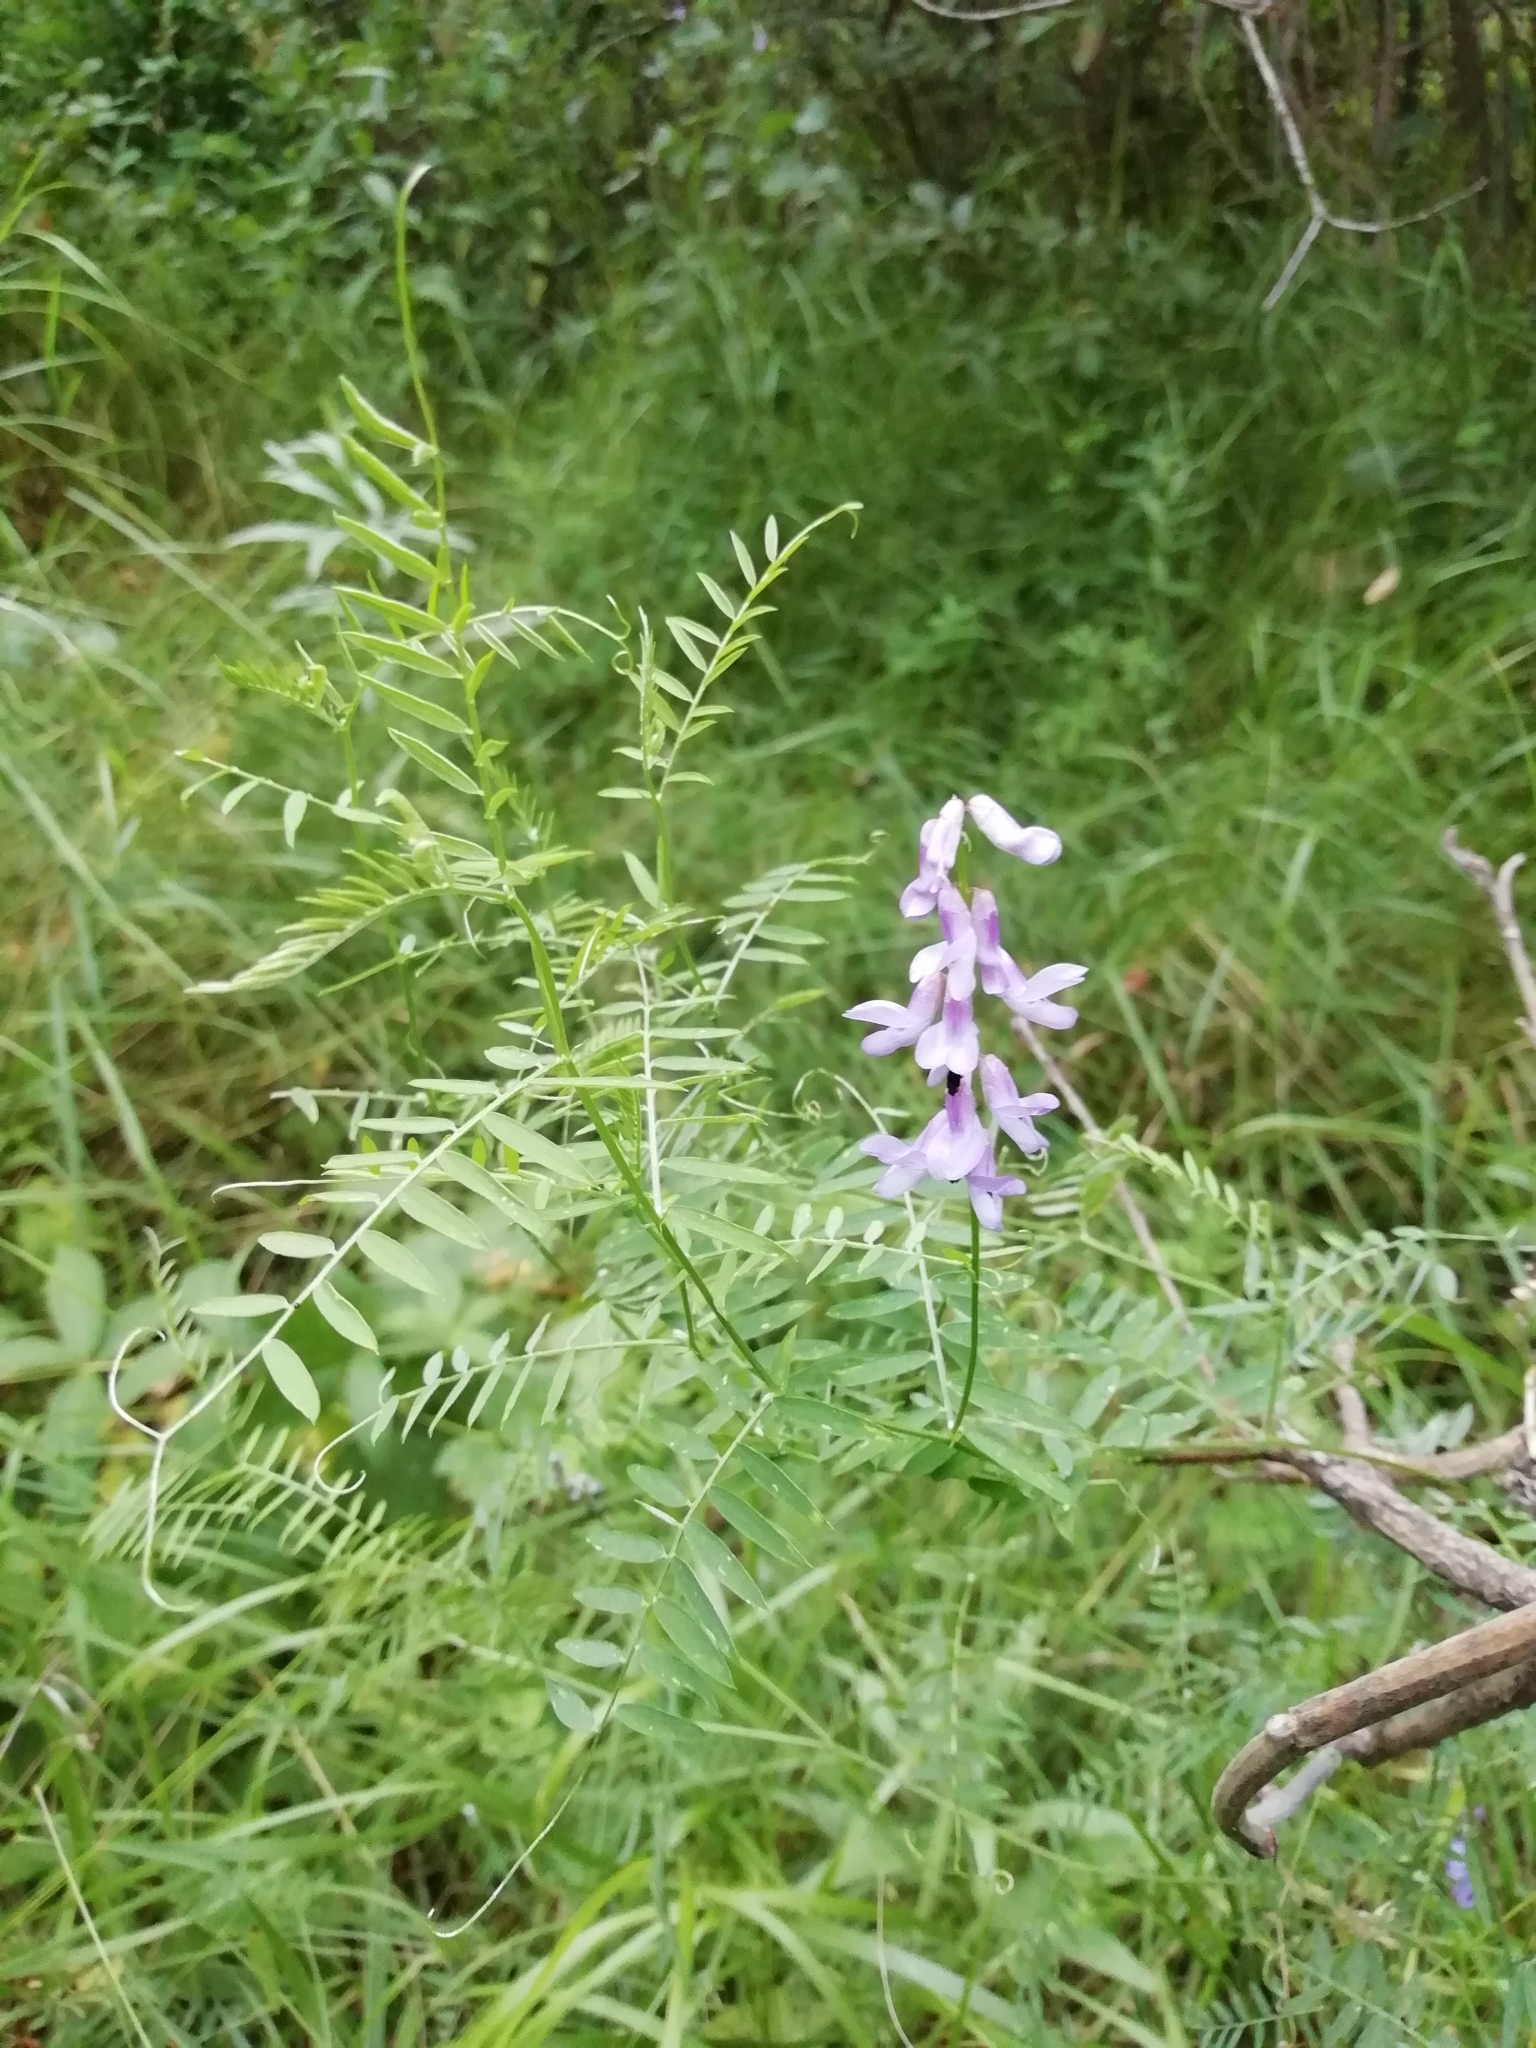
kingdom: Plantae
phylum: Tracheophyta
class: Magnoliopsida
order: Fabales
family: Fabaceae
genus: Vicia
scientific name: Vicia cracca
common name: Bird vetch
